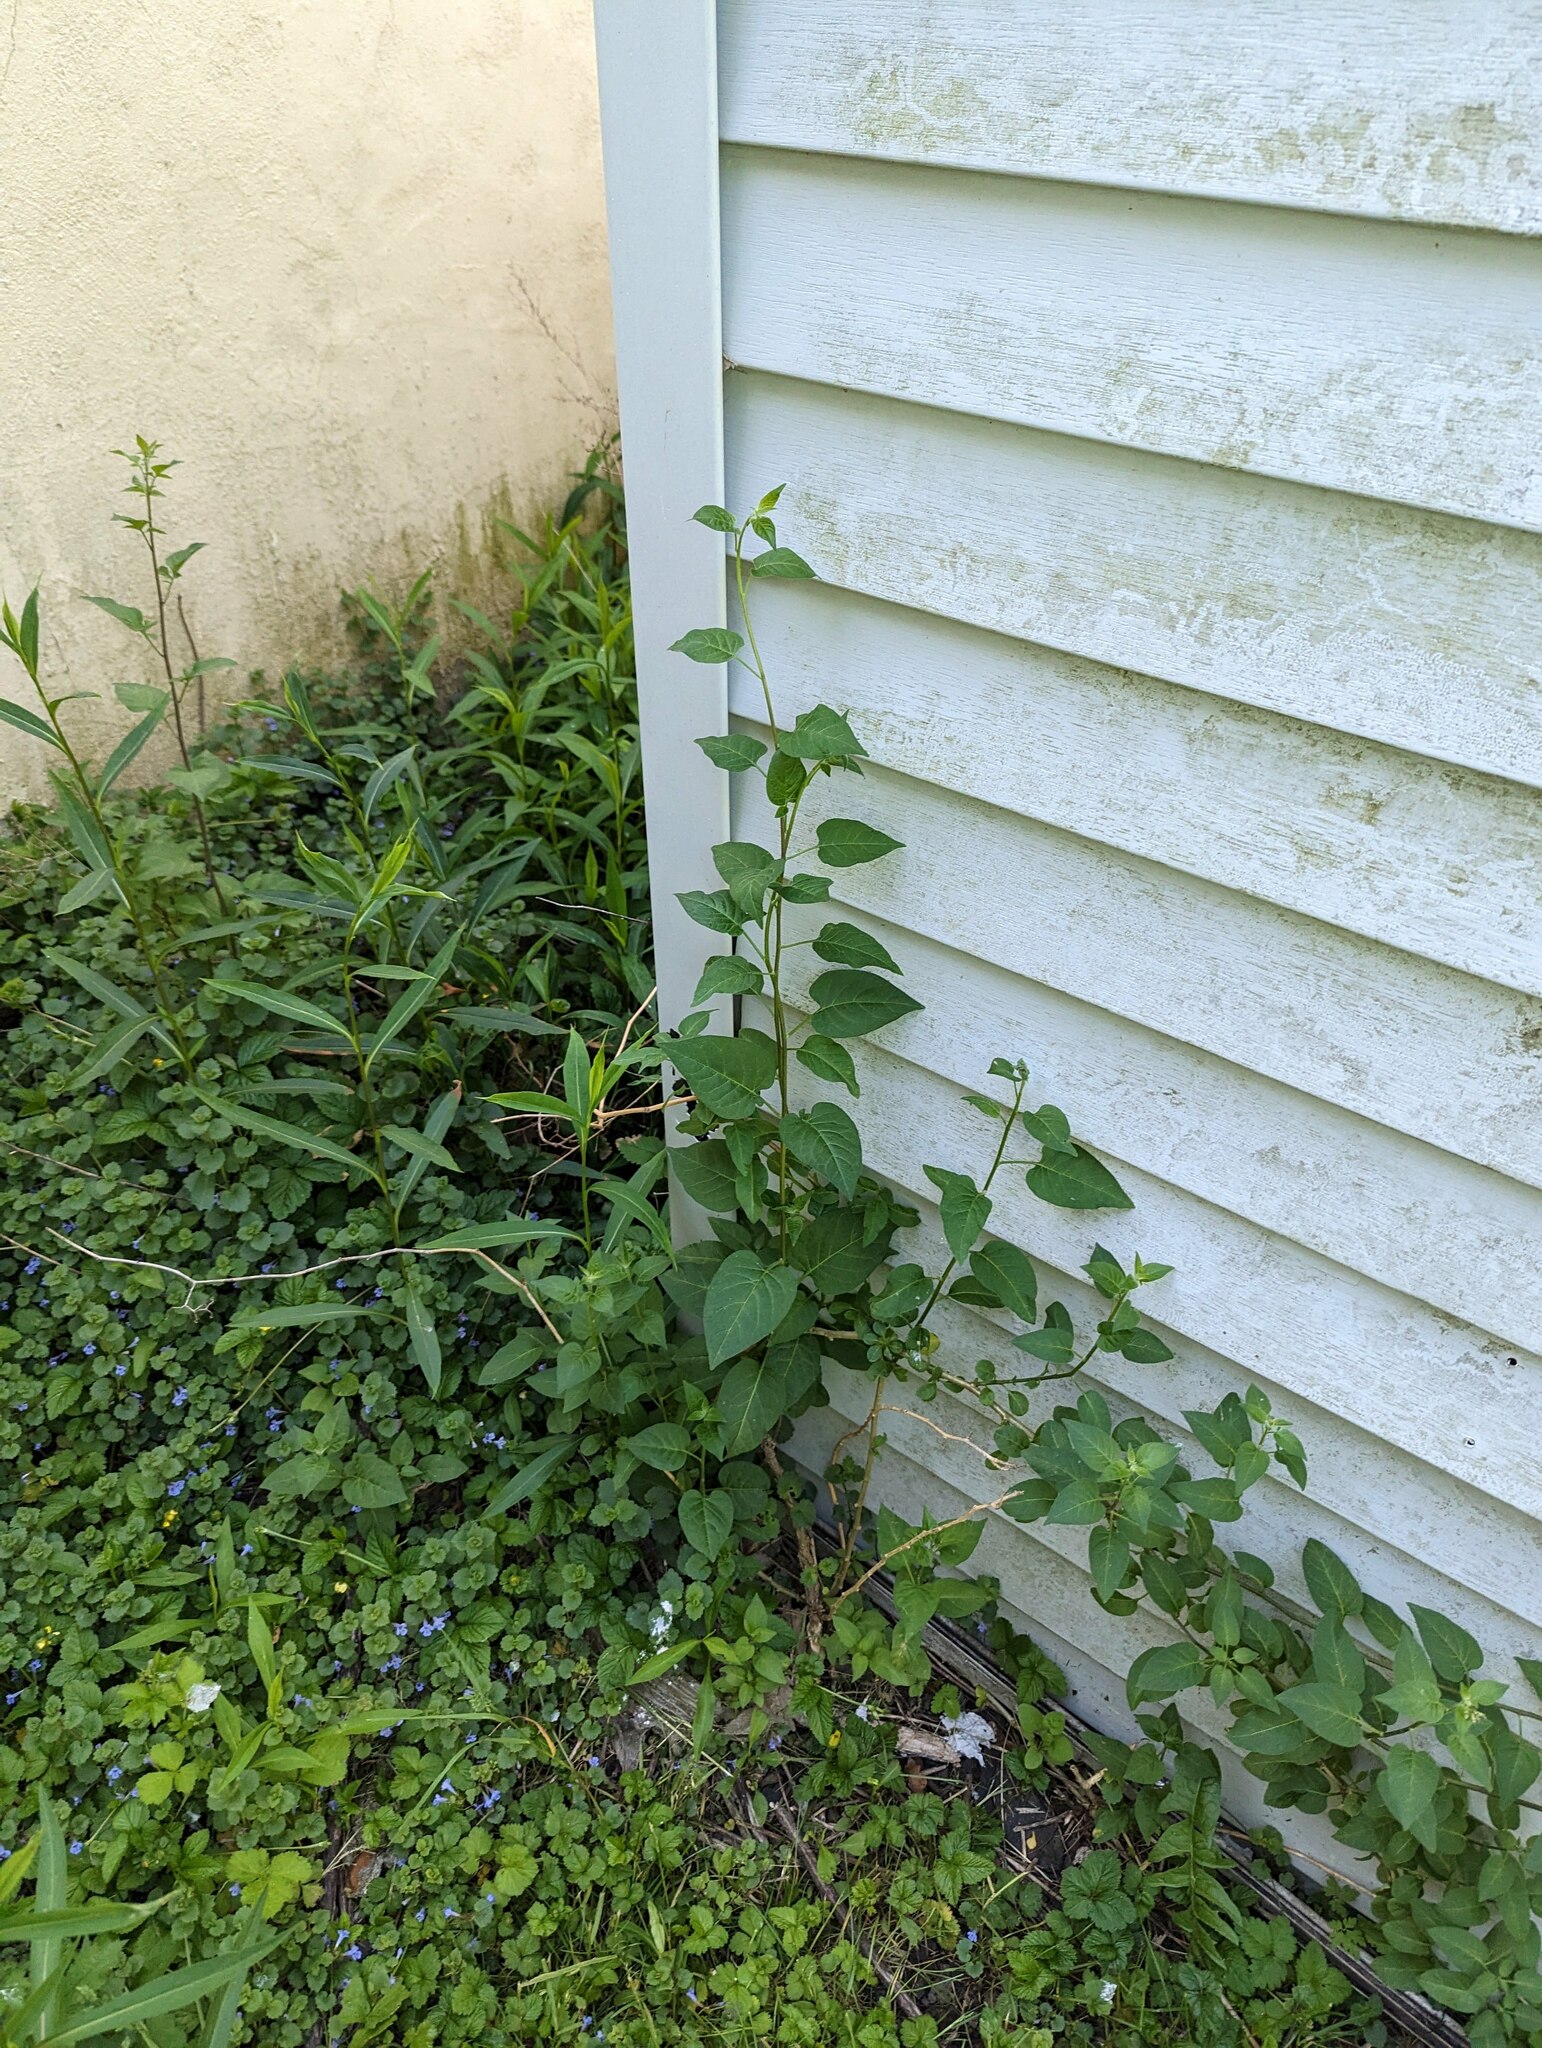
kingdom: Plantae
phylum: Tracheophyta
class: Magnoliopsida
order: Solanales
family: Solanaceae
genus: Solanum
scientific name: Solanum dulcamara
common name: Climbing nightshade
